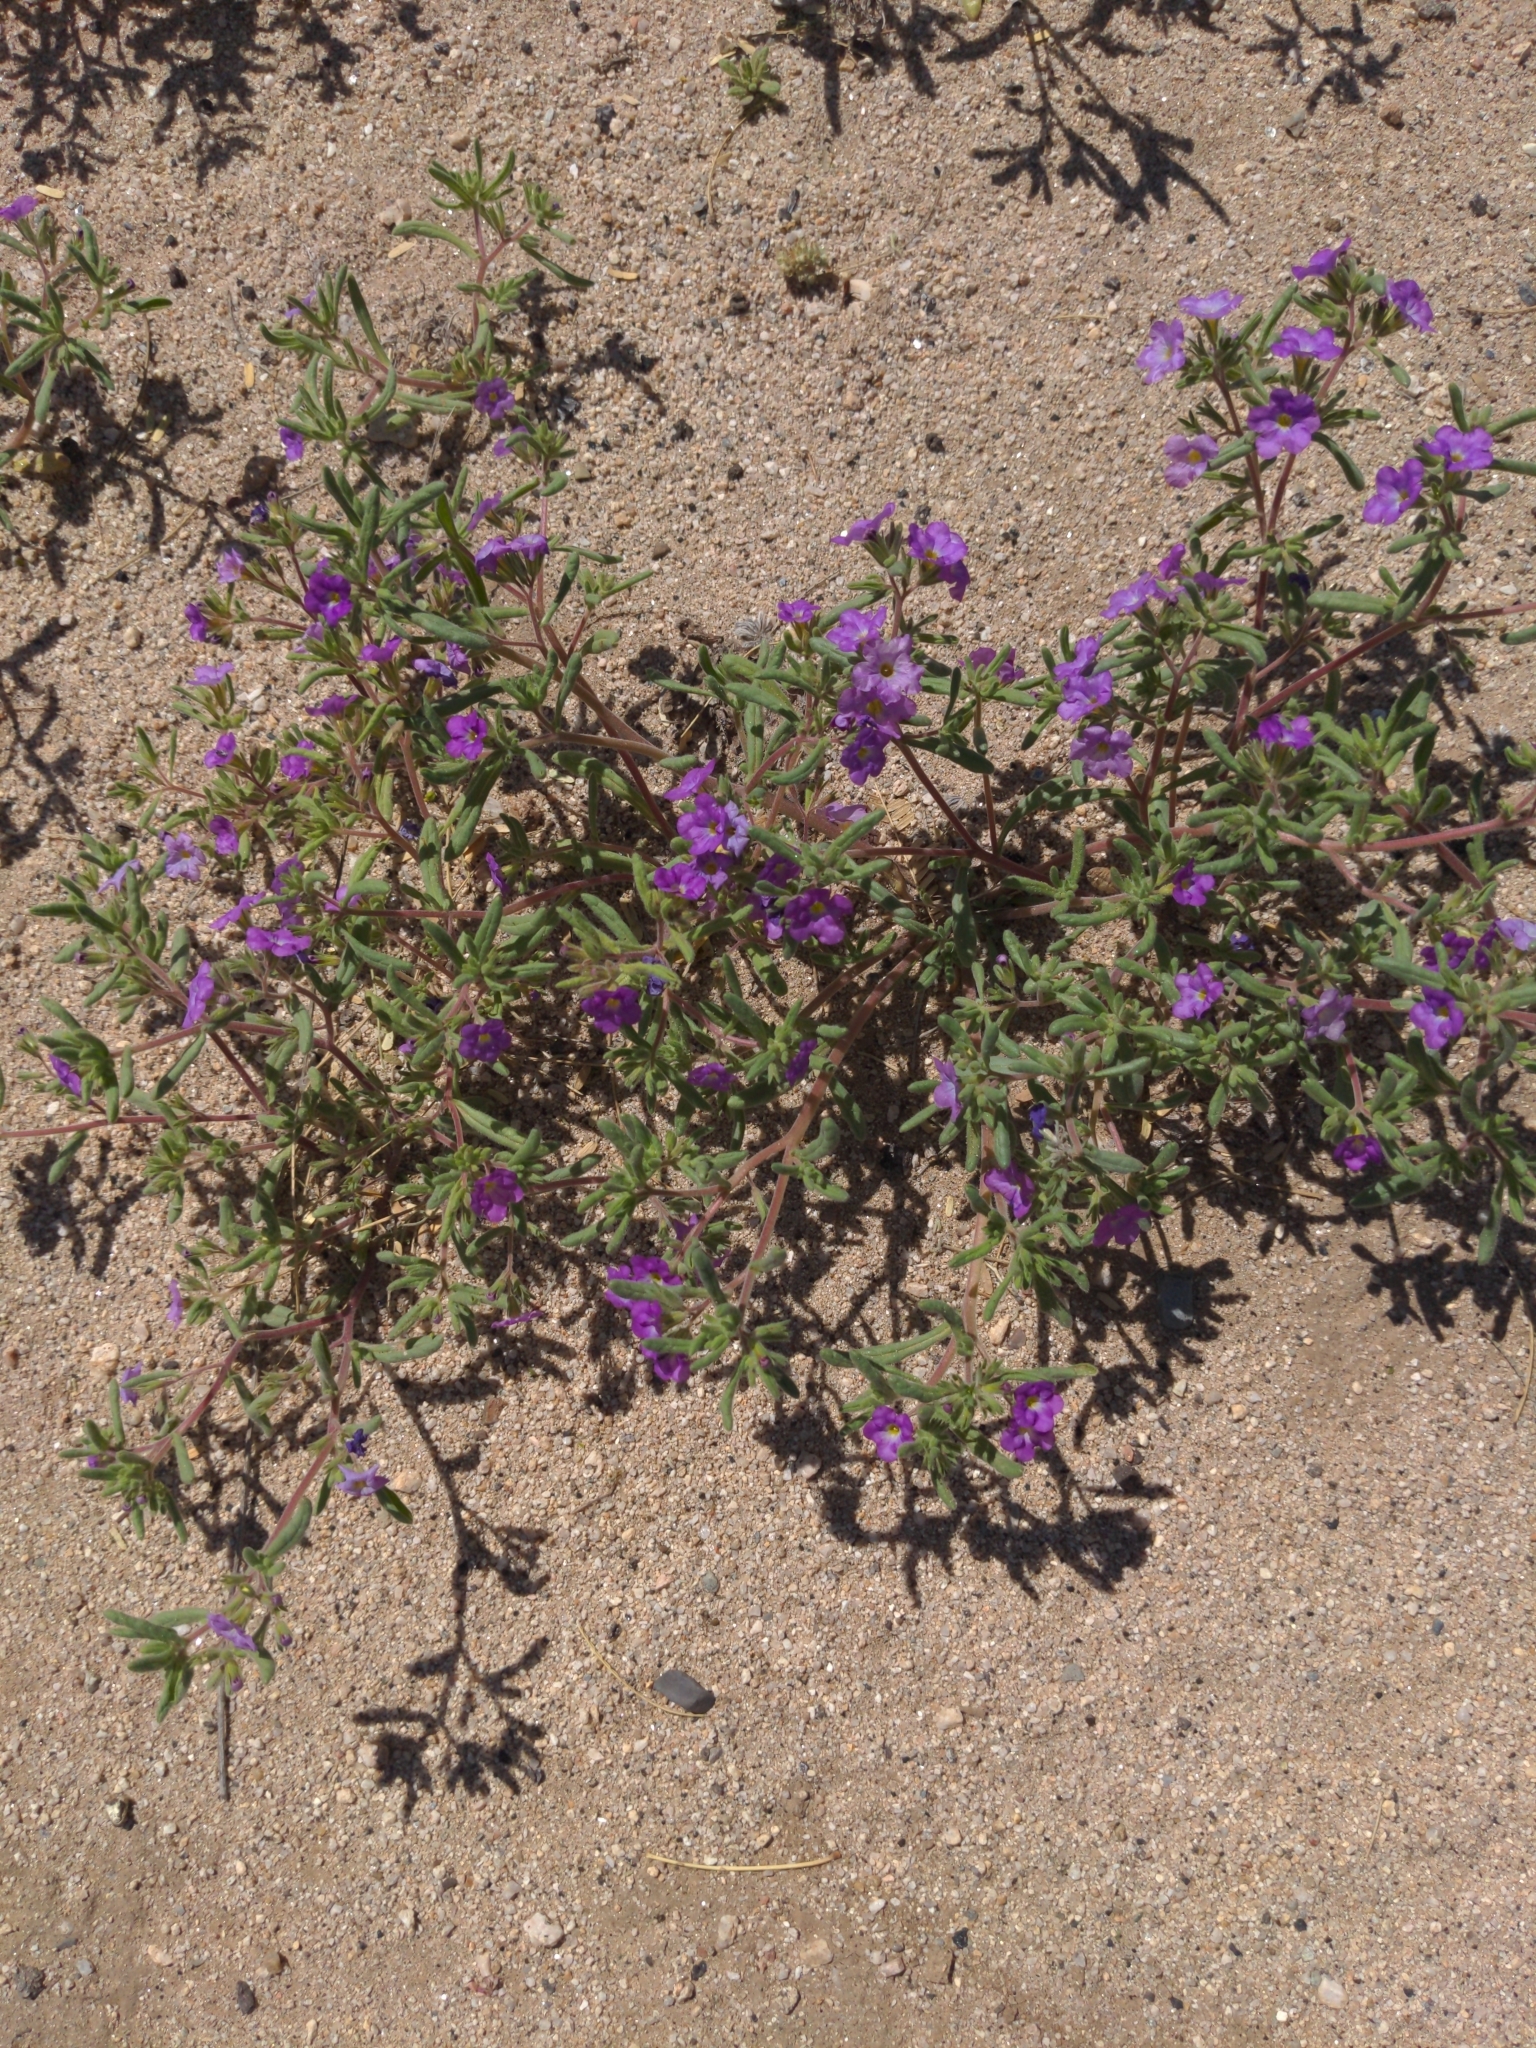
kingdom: Plantae
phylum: Tracheophyta
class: Magnoliopsida
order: Boraginales
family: Namaceae
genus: Nama
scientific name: Nama hispida
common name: Bristly nama
